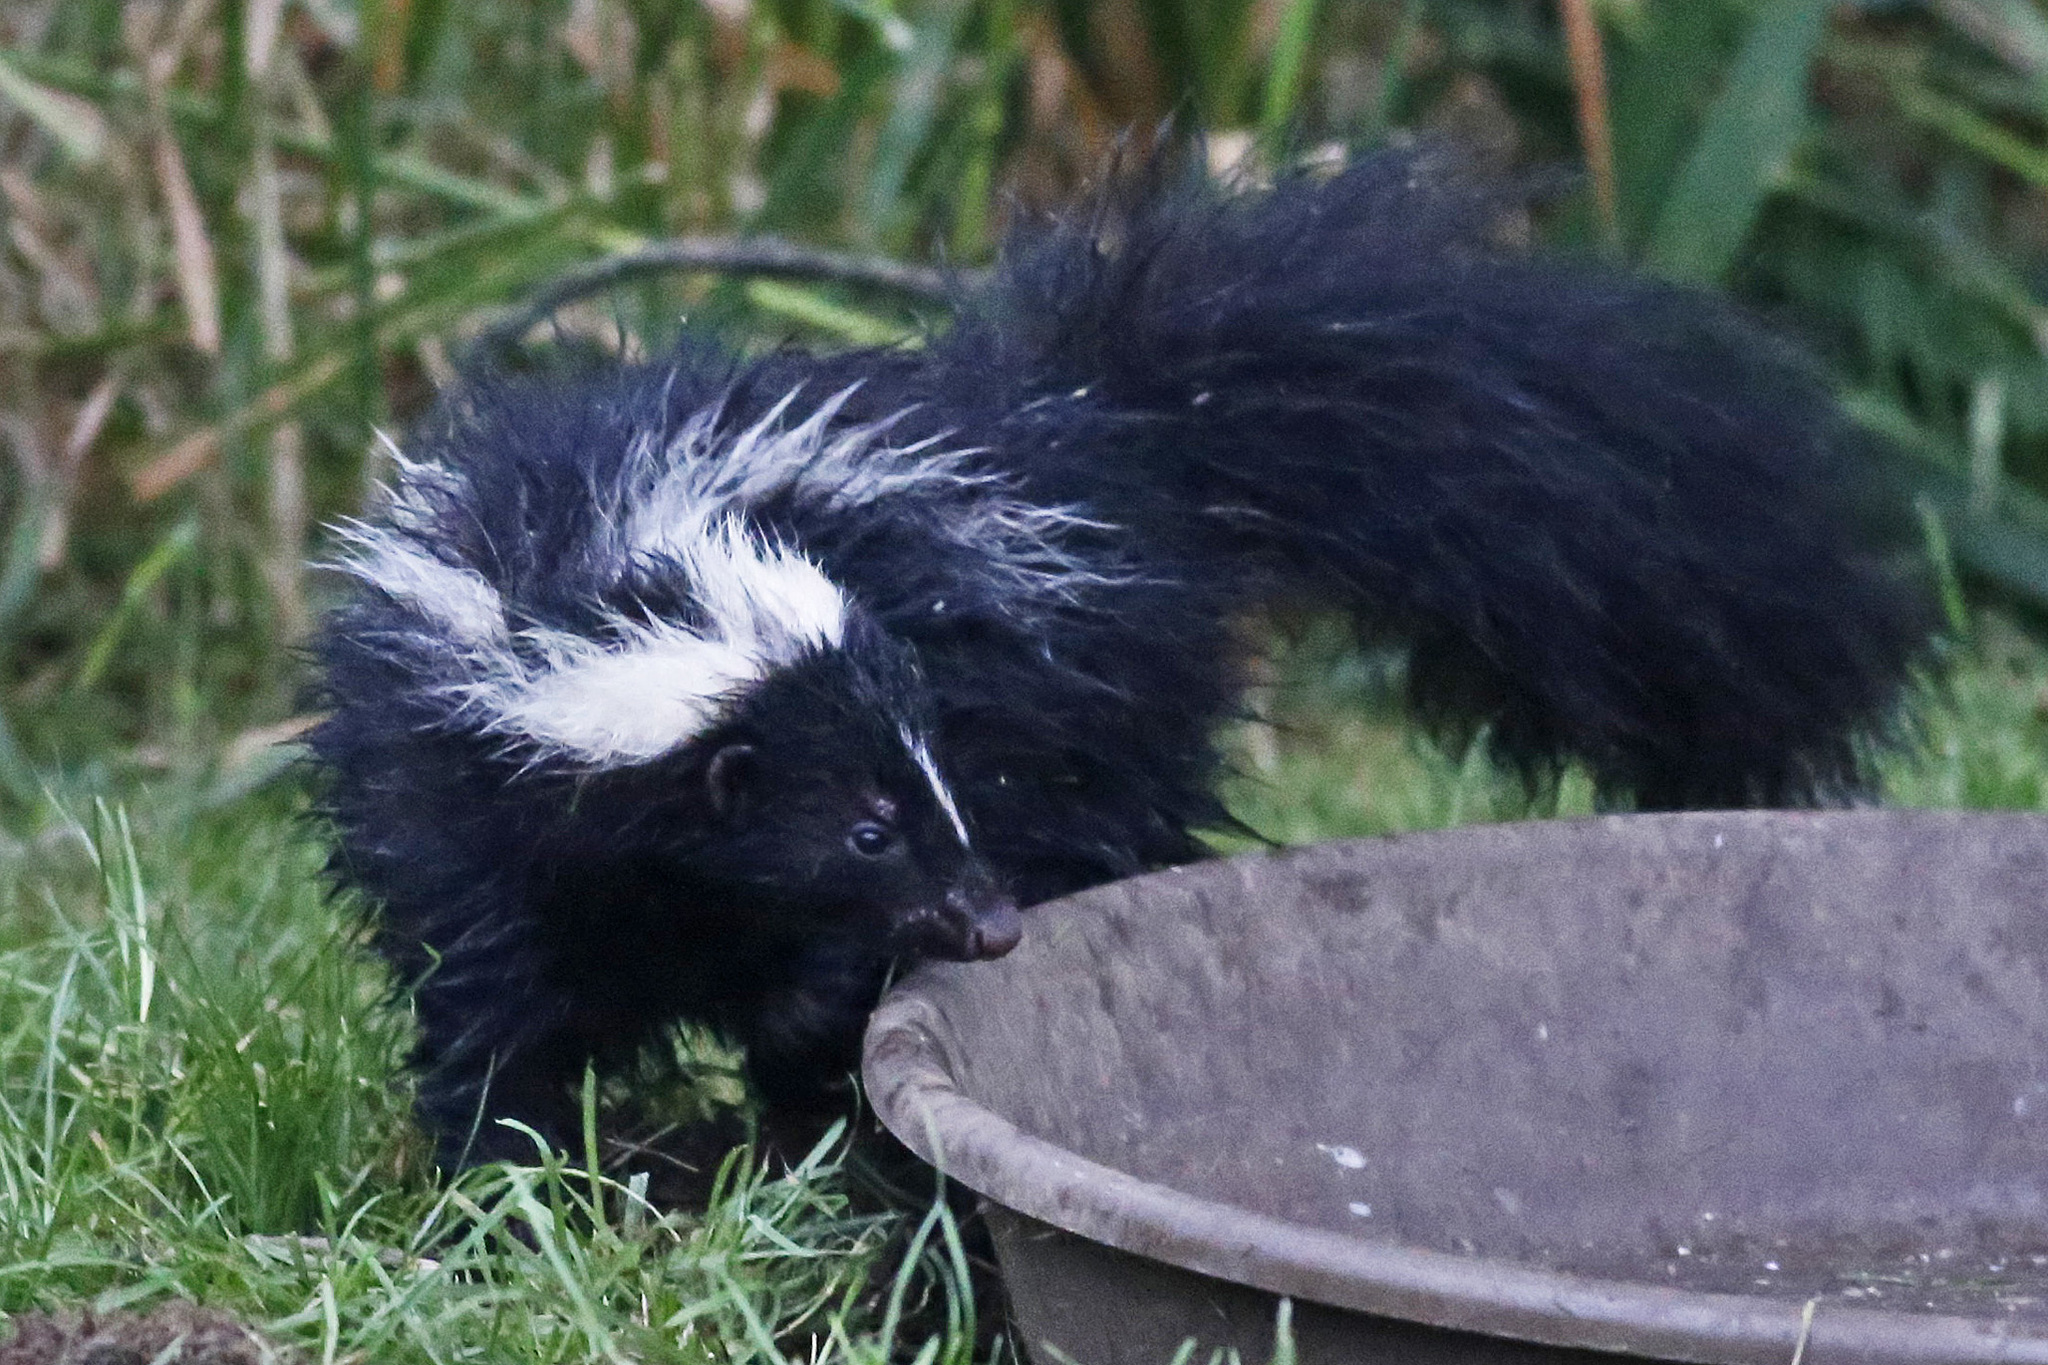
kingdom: Animalia
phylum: Chordata
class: Mammalia
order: Carnivora
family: Mephitidae
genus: Mephitis
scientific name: Mephitis mephitis
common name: Striped skunk
